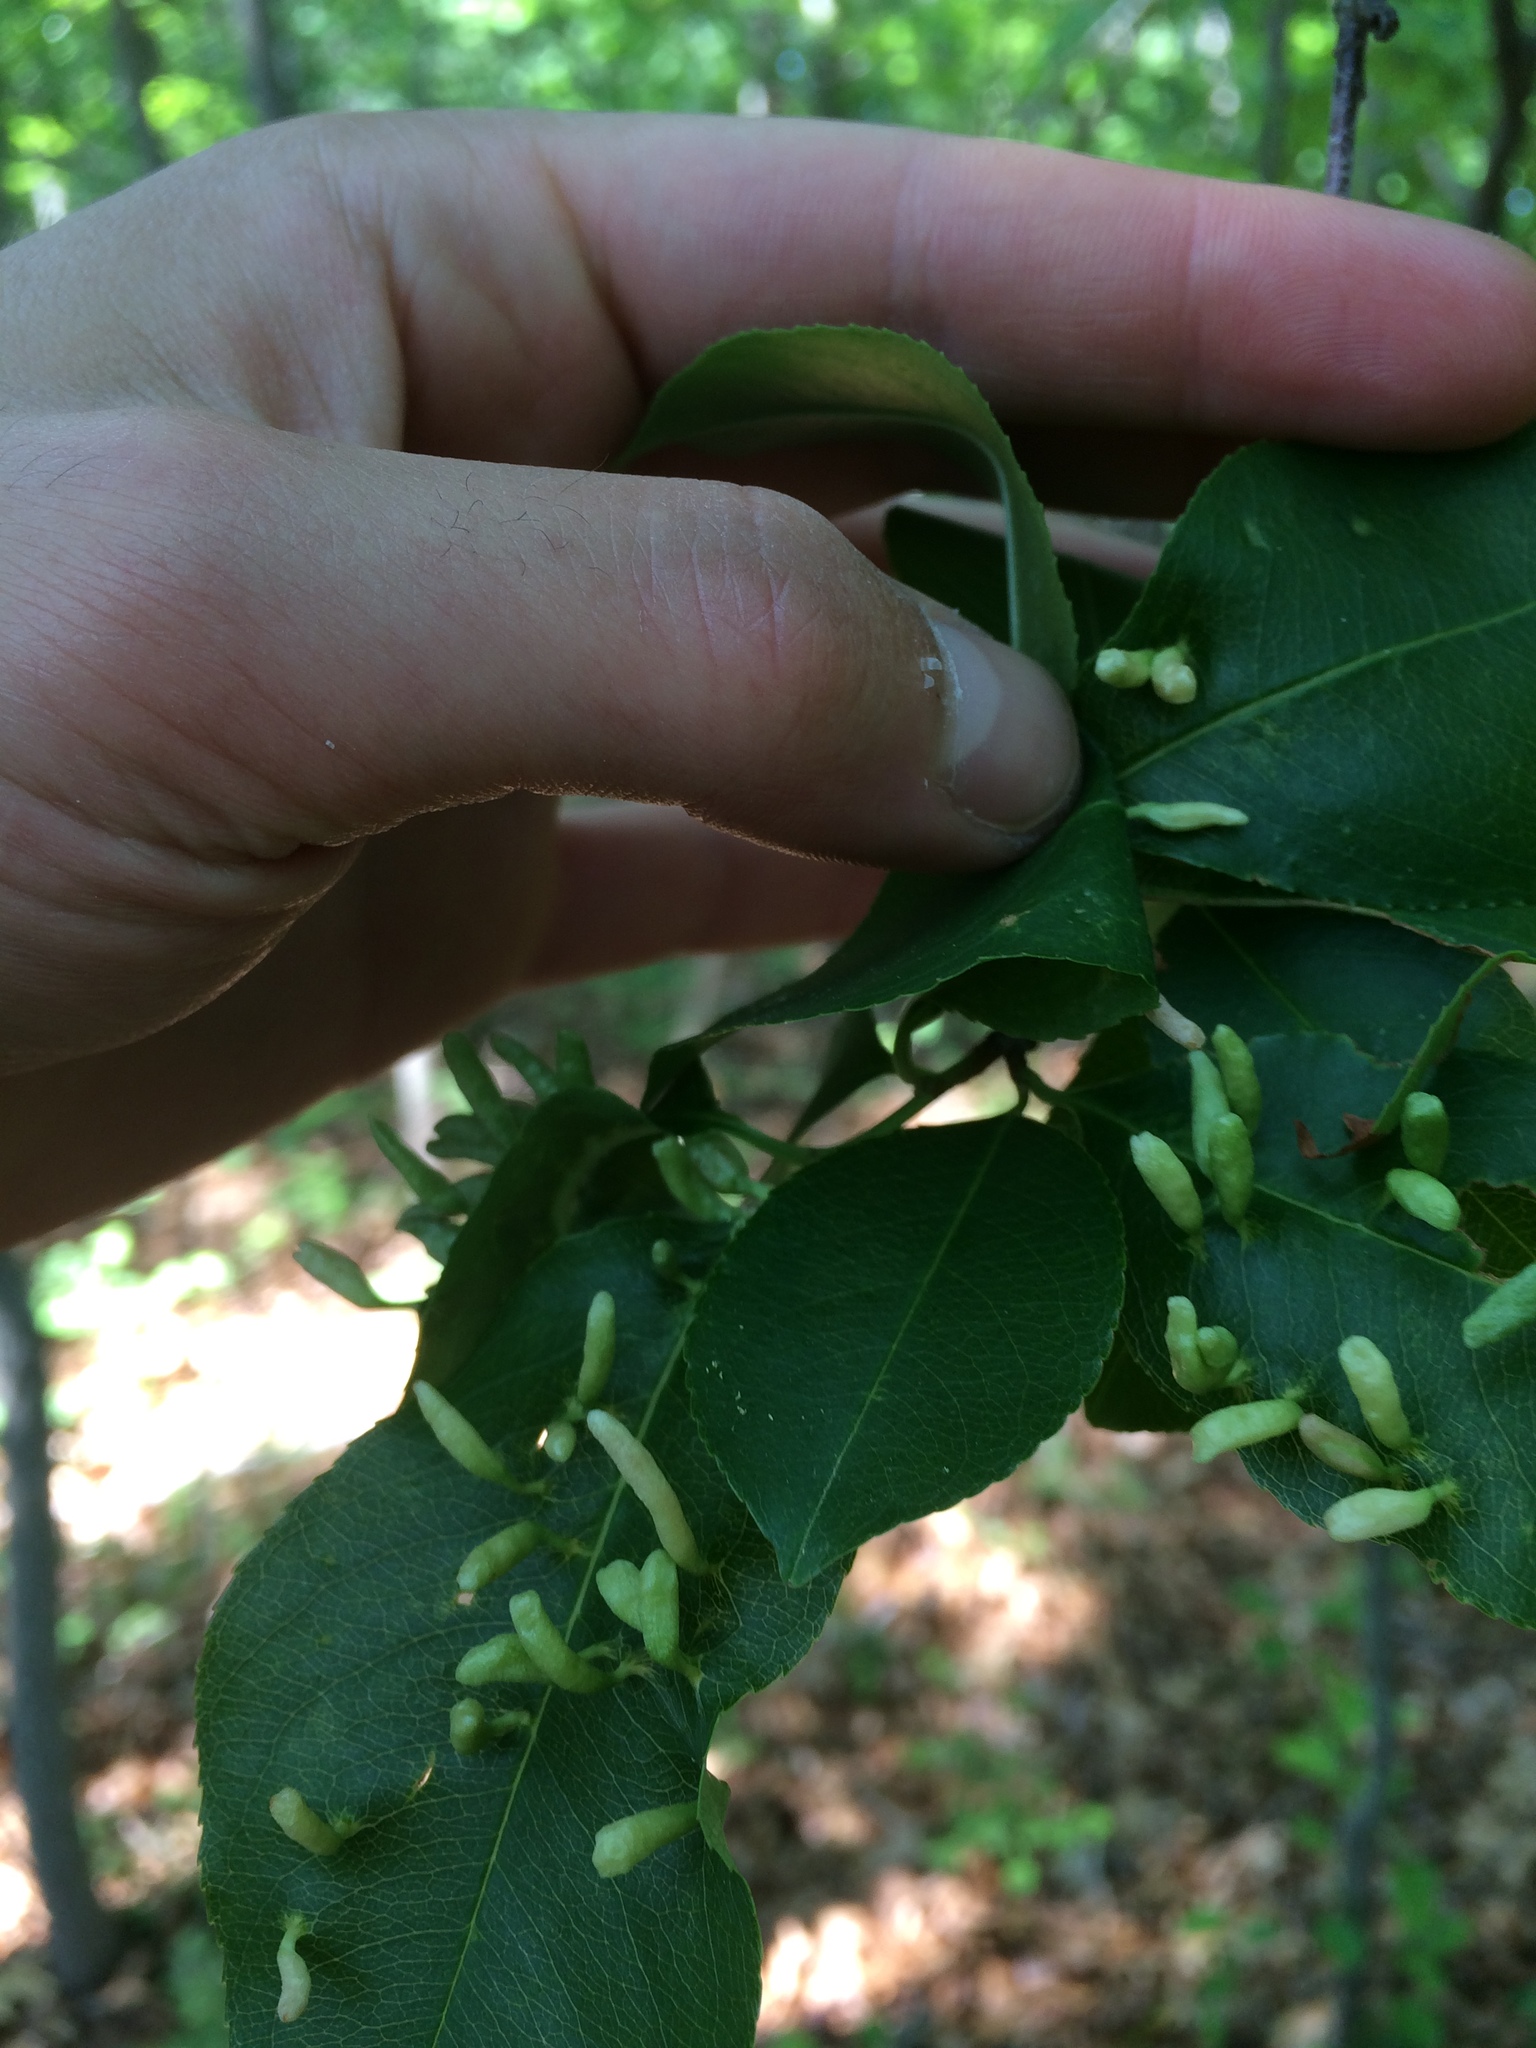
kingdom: Plantae
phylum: Tracheophyta
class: Magnoliopsida
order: Rosales
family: Rosaceae
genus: Prunus
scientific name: Prunus serotina
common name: Black cherry
